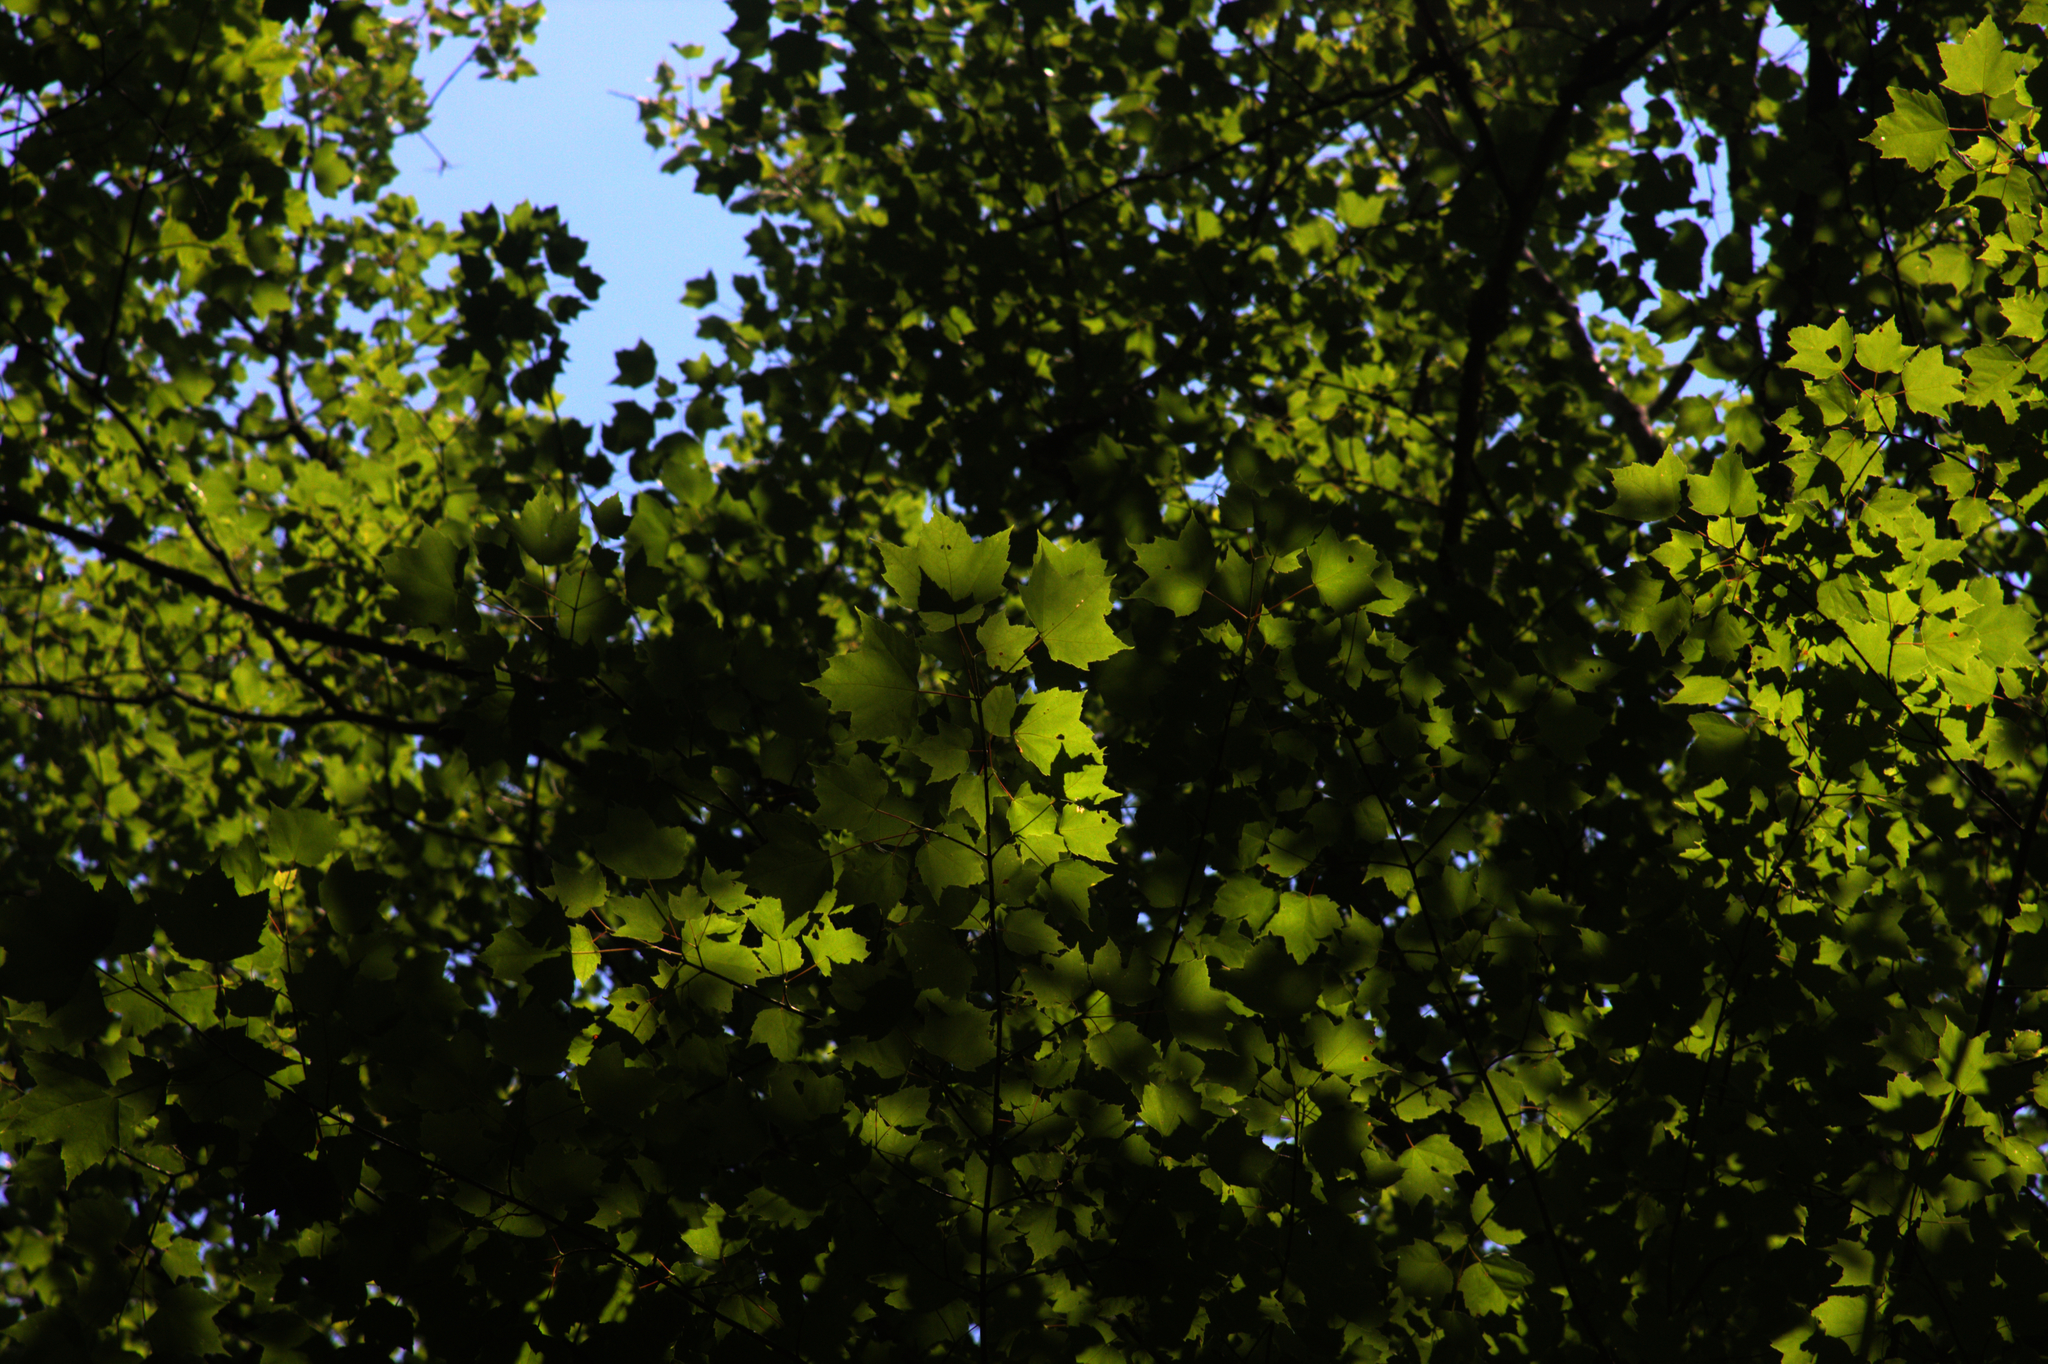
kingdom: Plantae
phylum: Tracheophyta
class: Magnoliopsida
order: Sapindales
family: Sapindaceae
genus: Acer
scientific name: Acer rubrum
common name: Red maple
